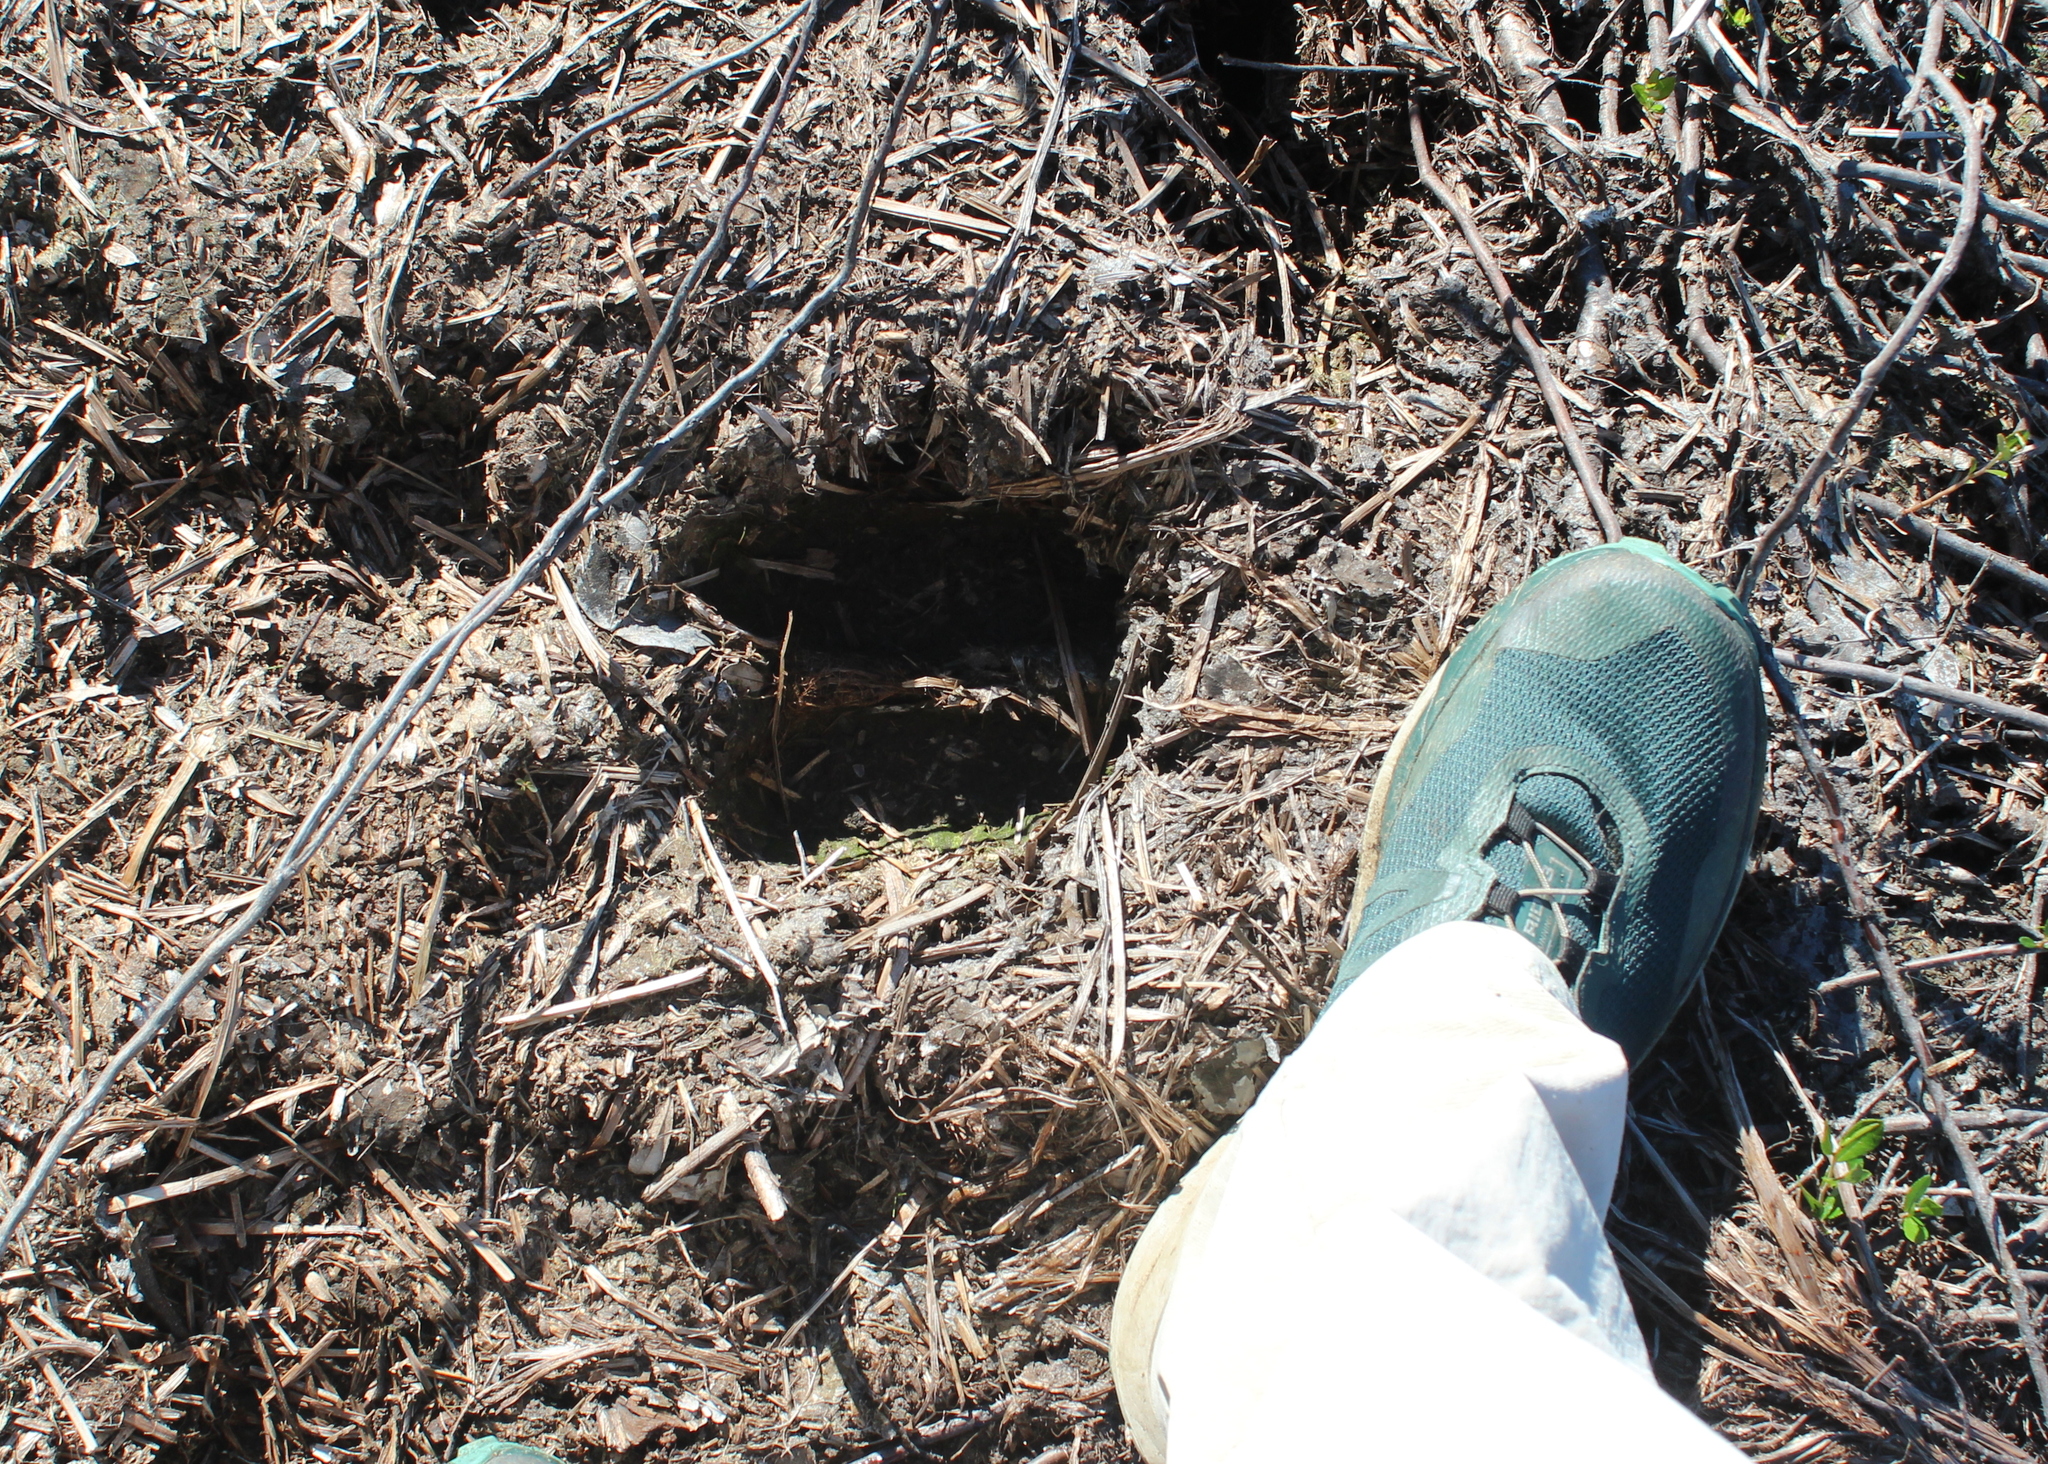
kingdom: Animalia
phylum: Chordata
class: Mammalia
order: Artiodactyla
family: Cervidae
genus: Alces
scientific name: Alces alces
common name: Moose
